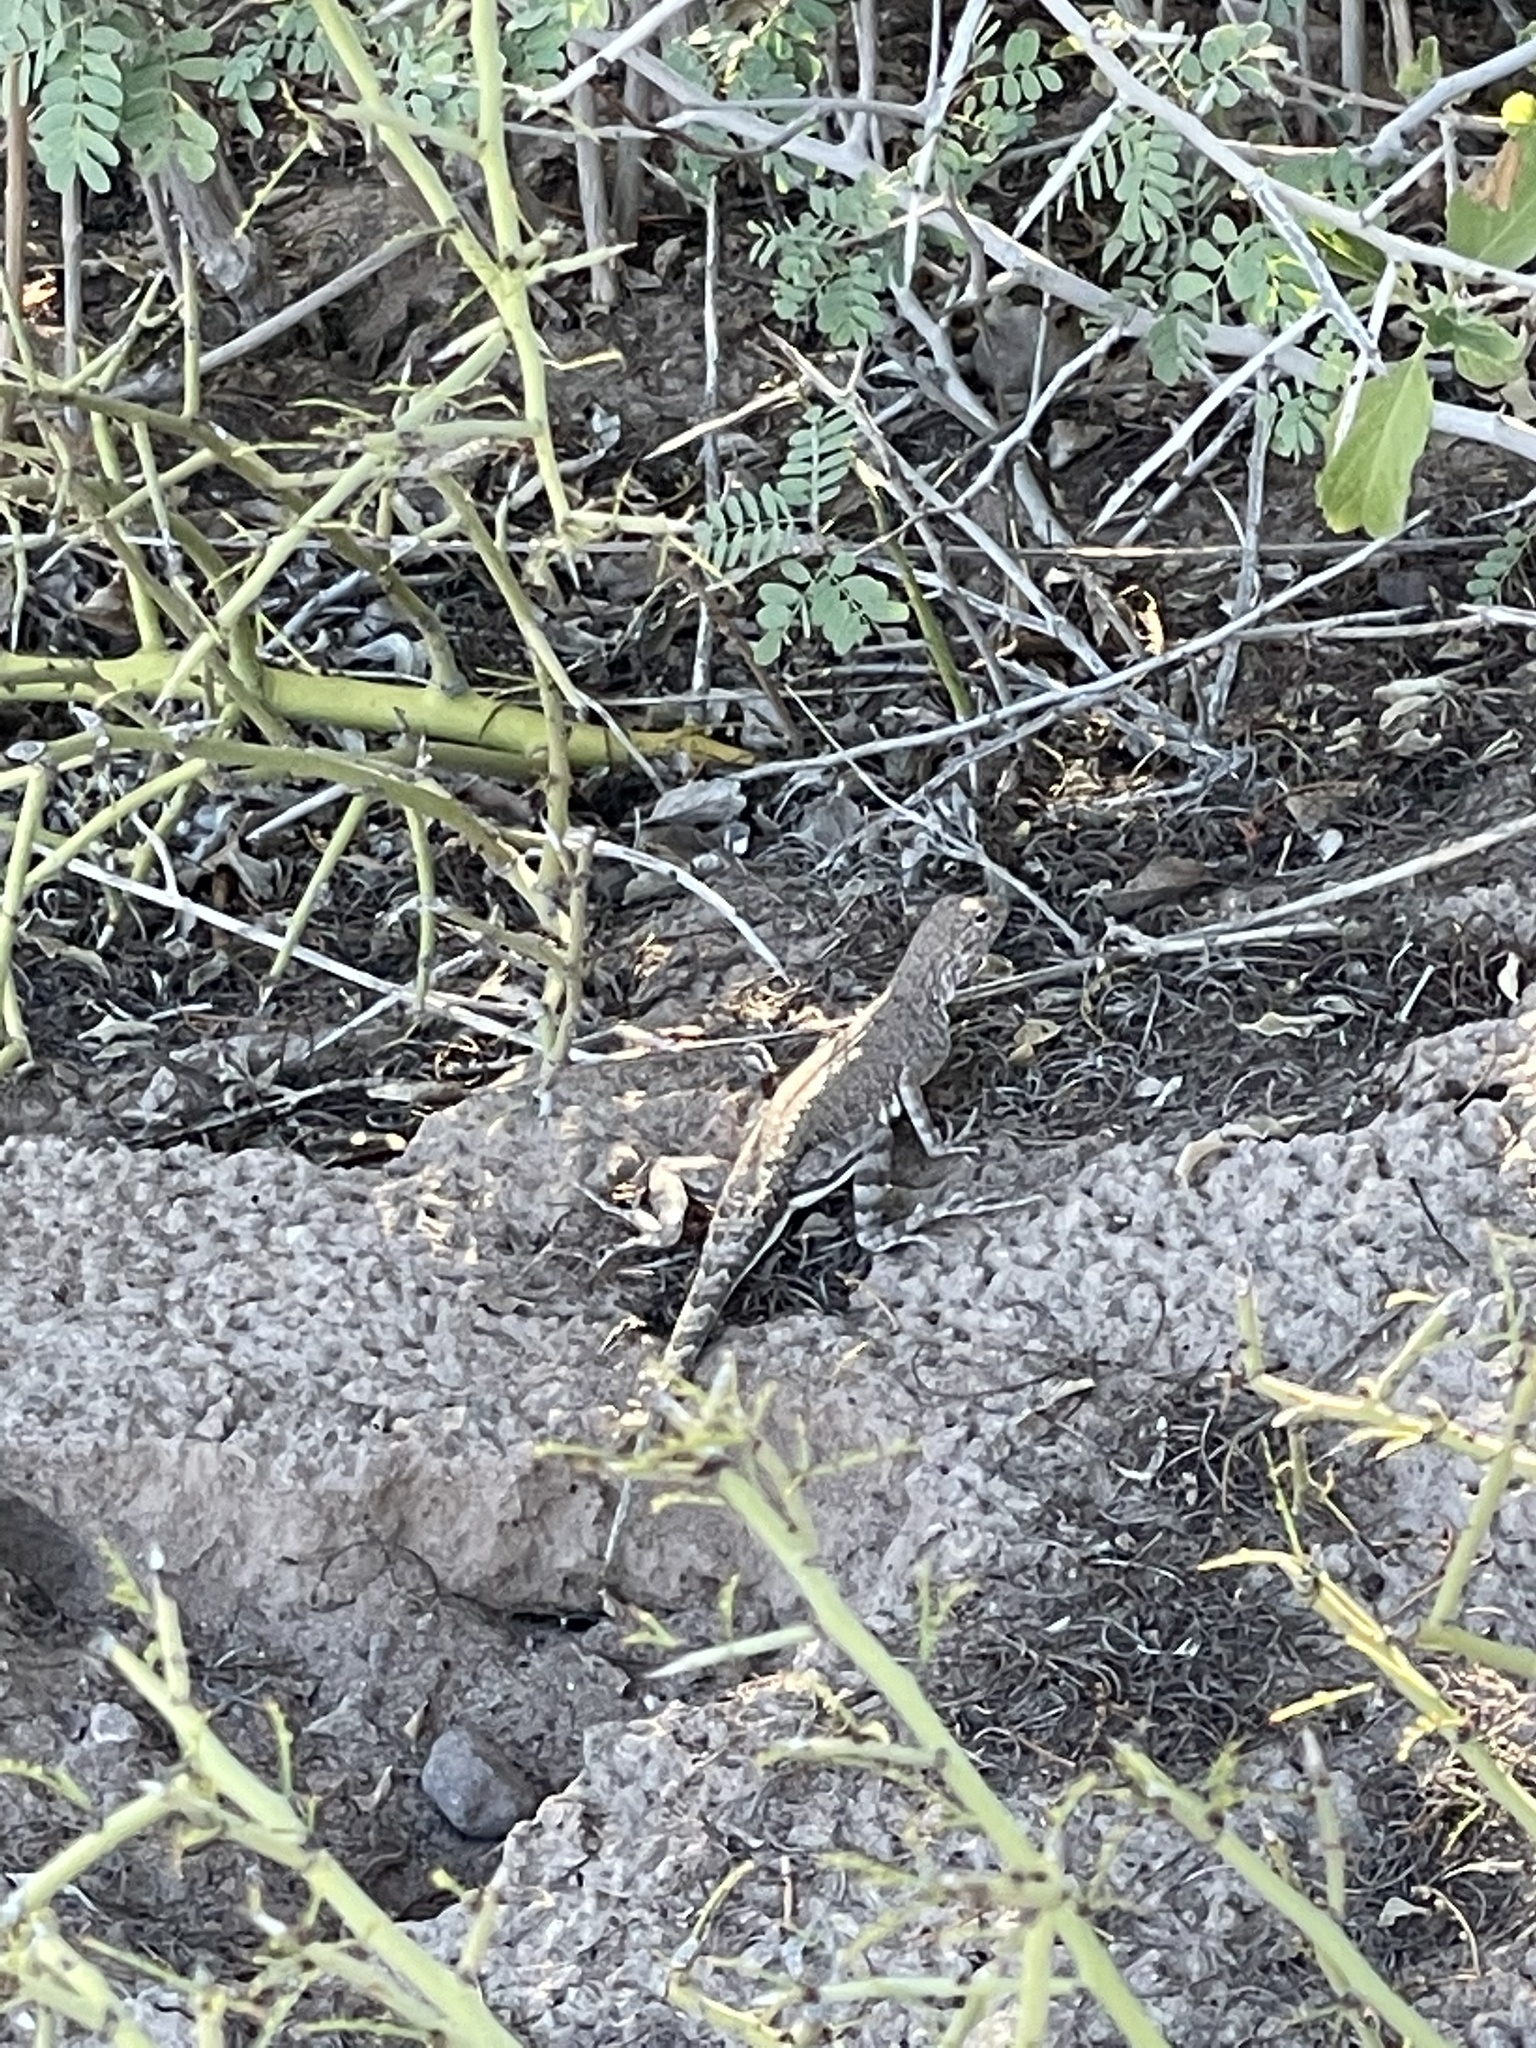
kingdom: Animalia
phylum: Chordata
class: Squamata
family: Phrynosomatidae
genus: Callisaurus
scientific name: Callisaurus draconoides
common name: Zebra-tailed lizard
